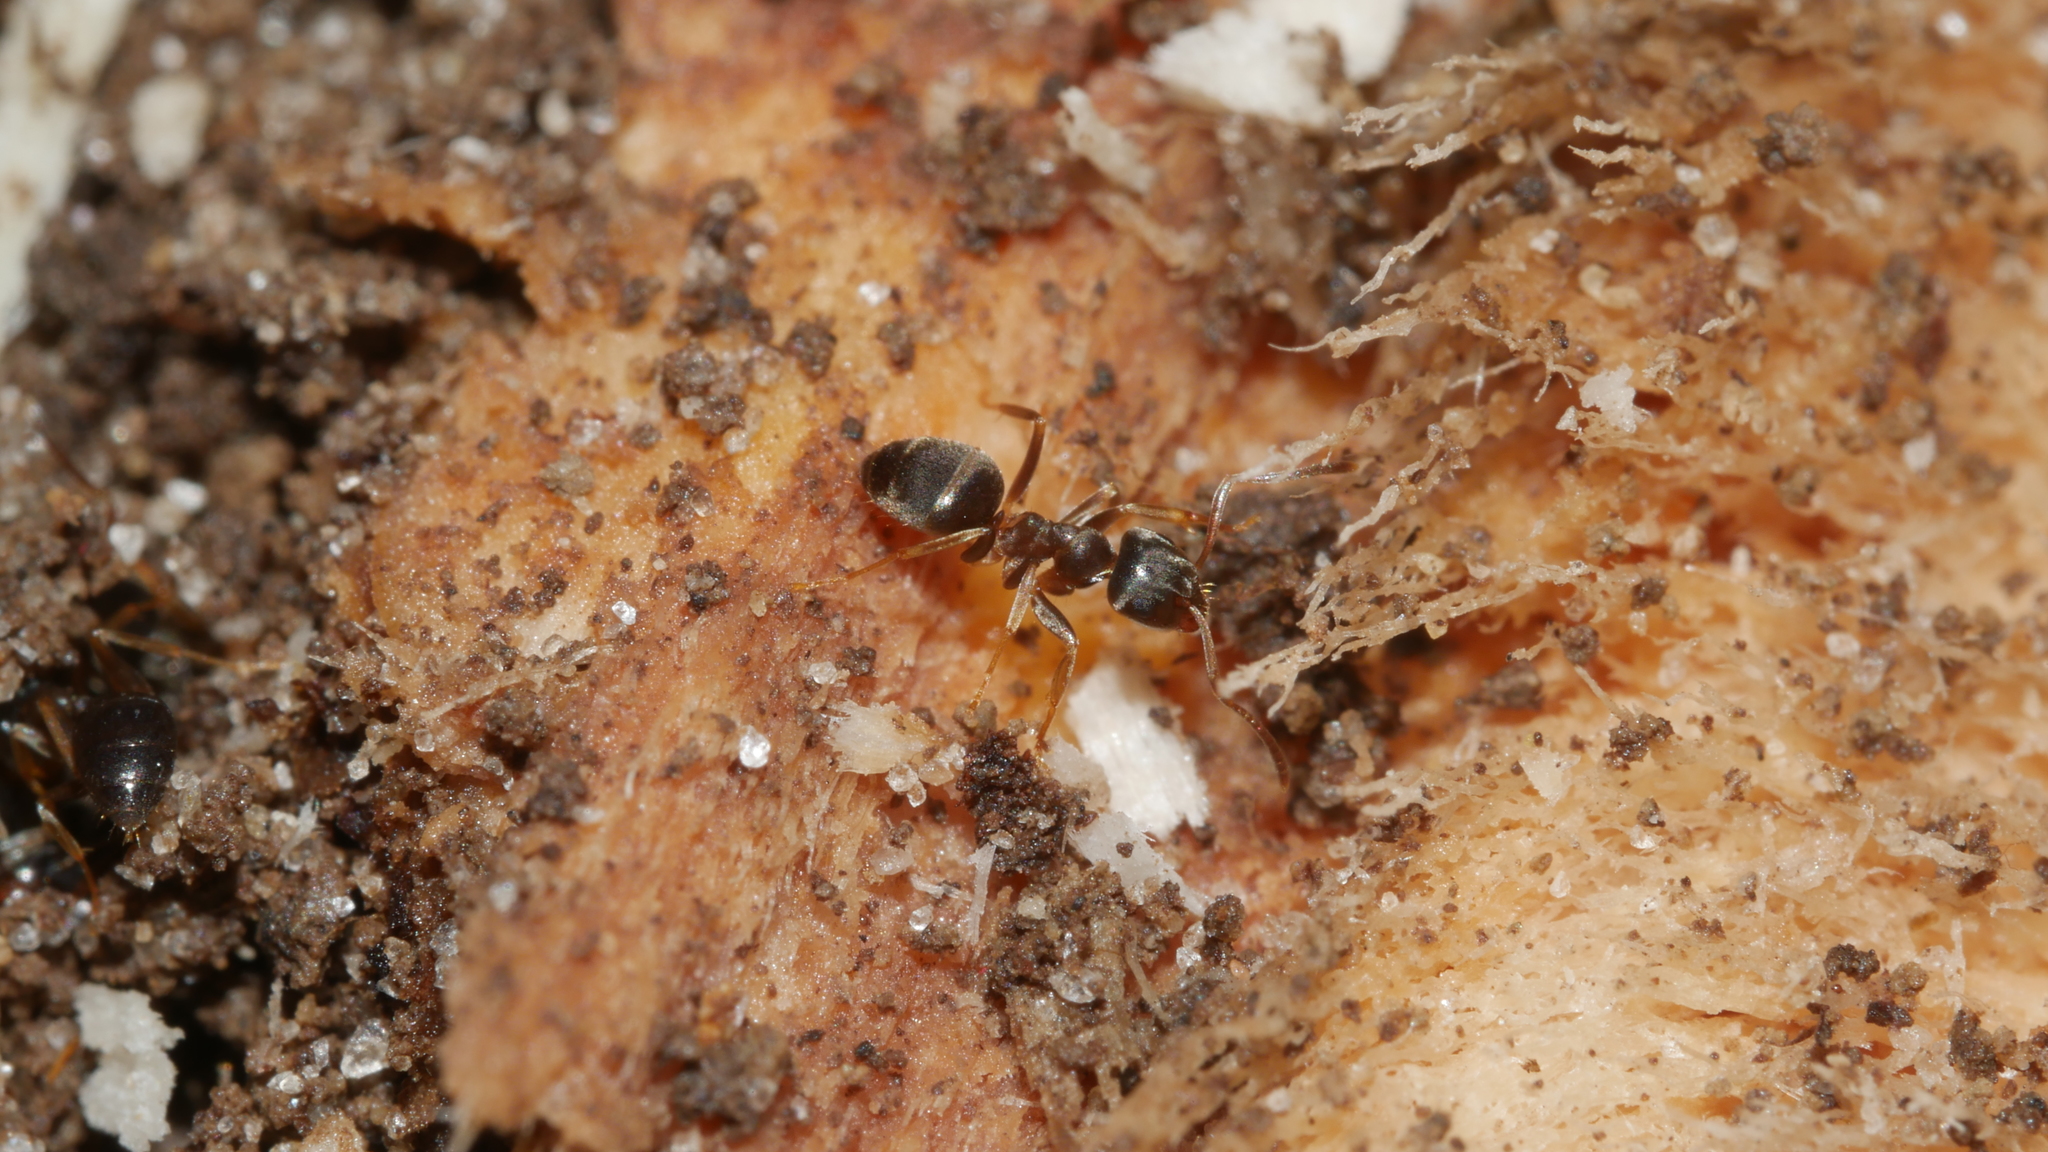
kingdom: Animalia
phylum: Arthropoda
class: Insecta
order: Hymenoptera
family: Formicidae
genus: Lasius
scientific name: Lasius americanus
